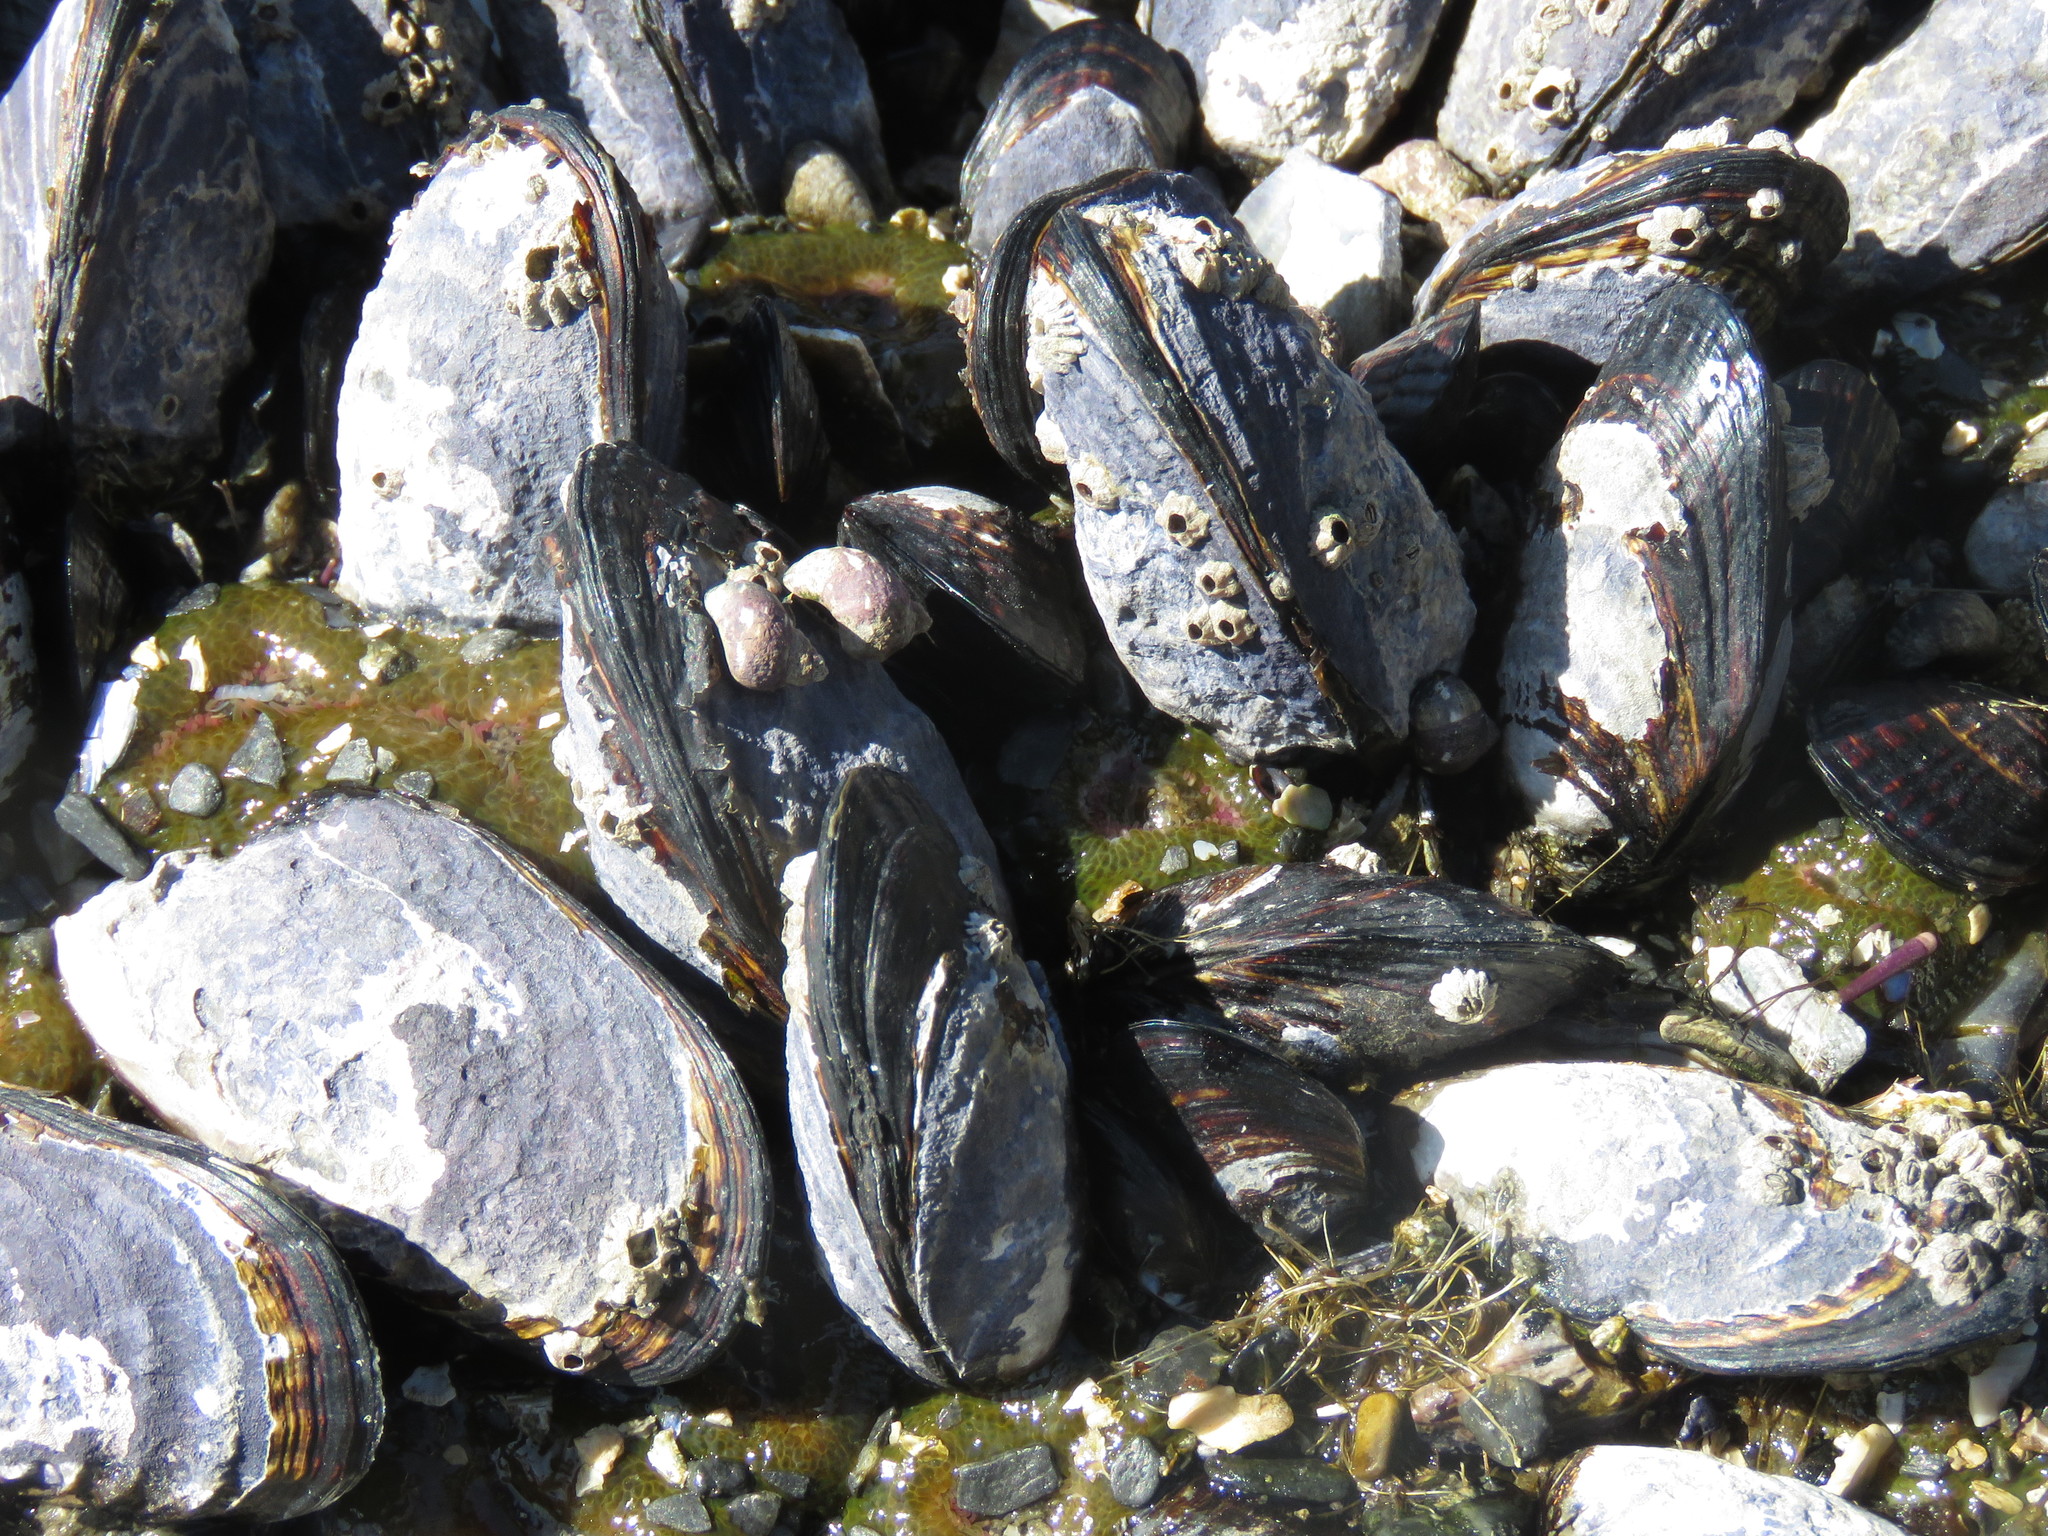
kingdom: Animalia
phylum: Mollusca
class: Bivalvia
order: Mytilida
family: Mytilidae
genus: Mytilus
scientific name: Mytilus californianus
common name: California mussel
